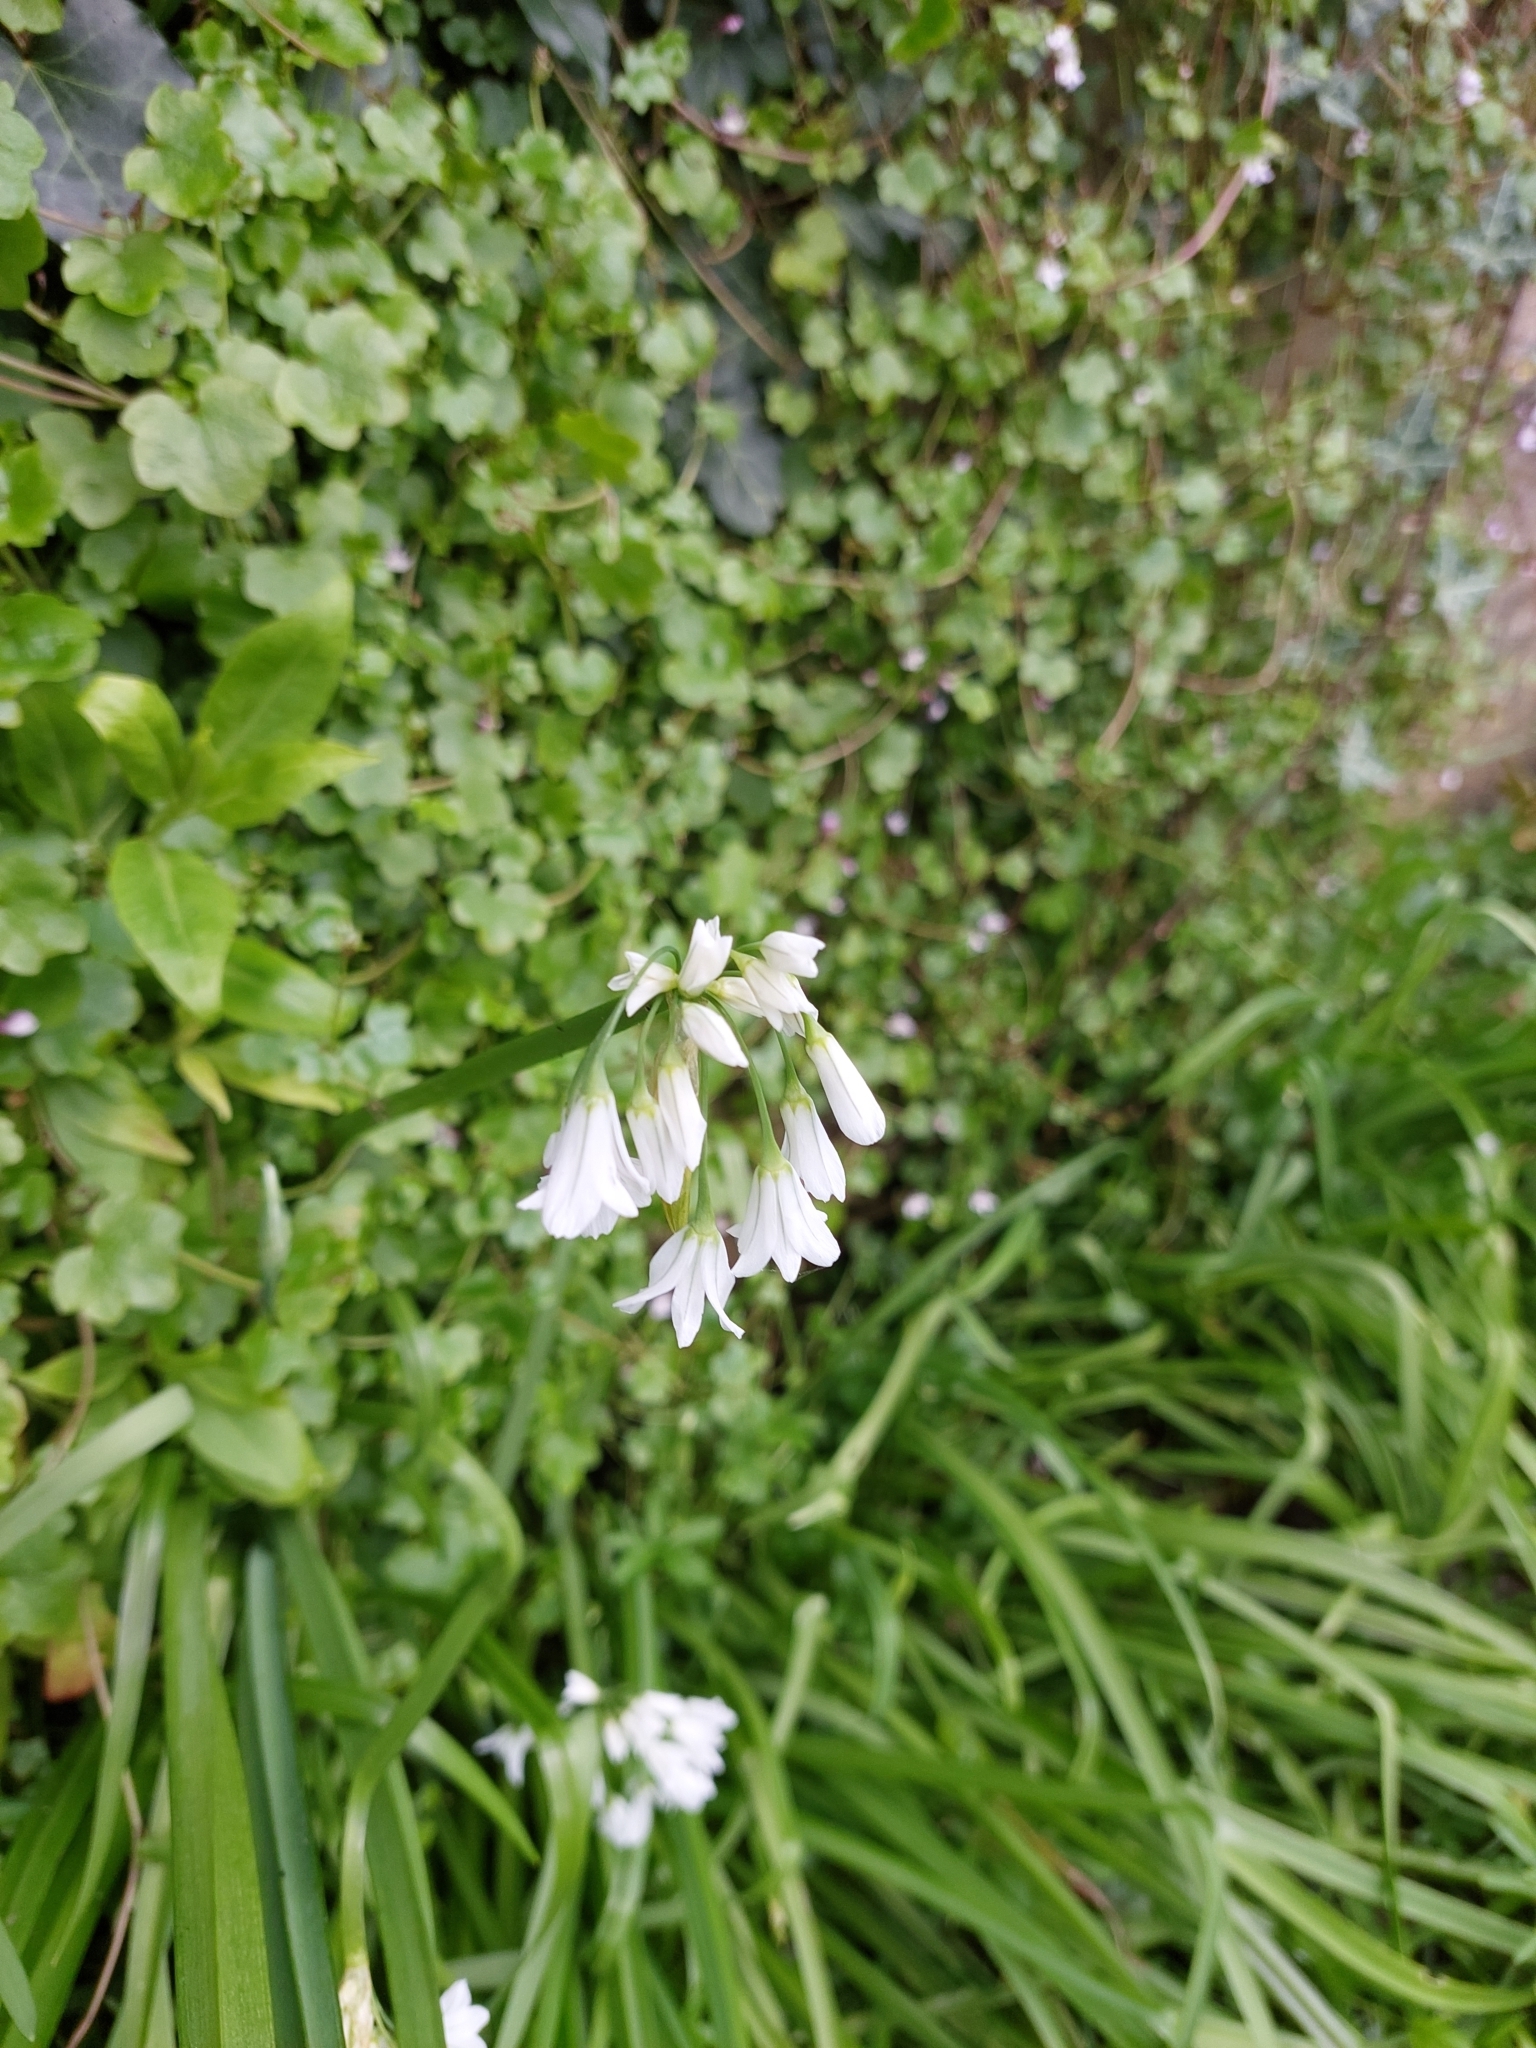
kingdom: Plantae
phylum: Tracheophyta
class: Liliopsida
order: Asparagales
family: Amaryllidaceae
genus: Allium
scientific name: Allium triquetrum
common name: Three-cornered garlic
